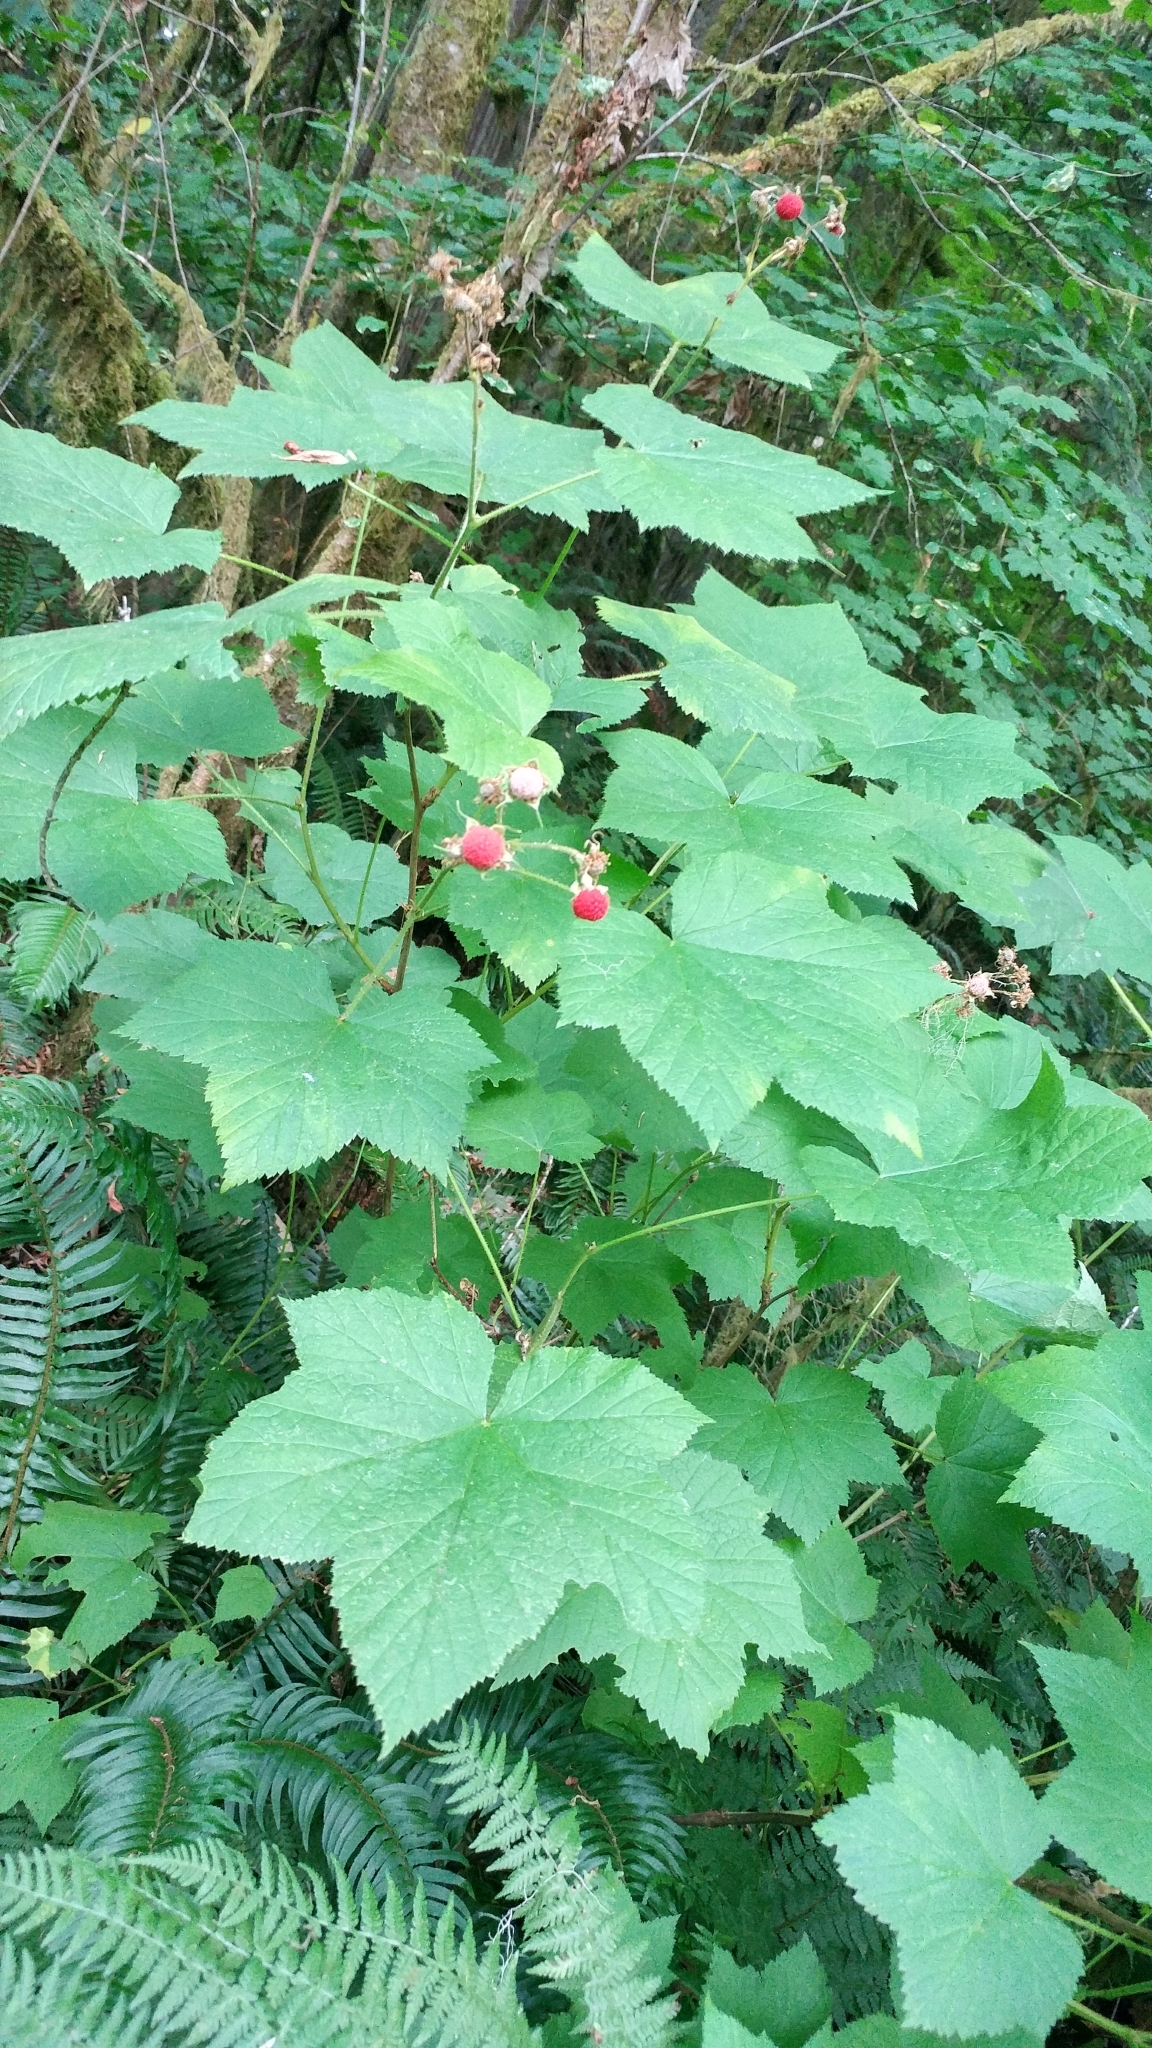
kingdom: Plantae
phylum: Tracheophyta
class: Magnoliopsida
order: Rosales
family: Rosaceae
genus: Rubus
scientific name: Rubus parviflorus
